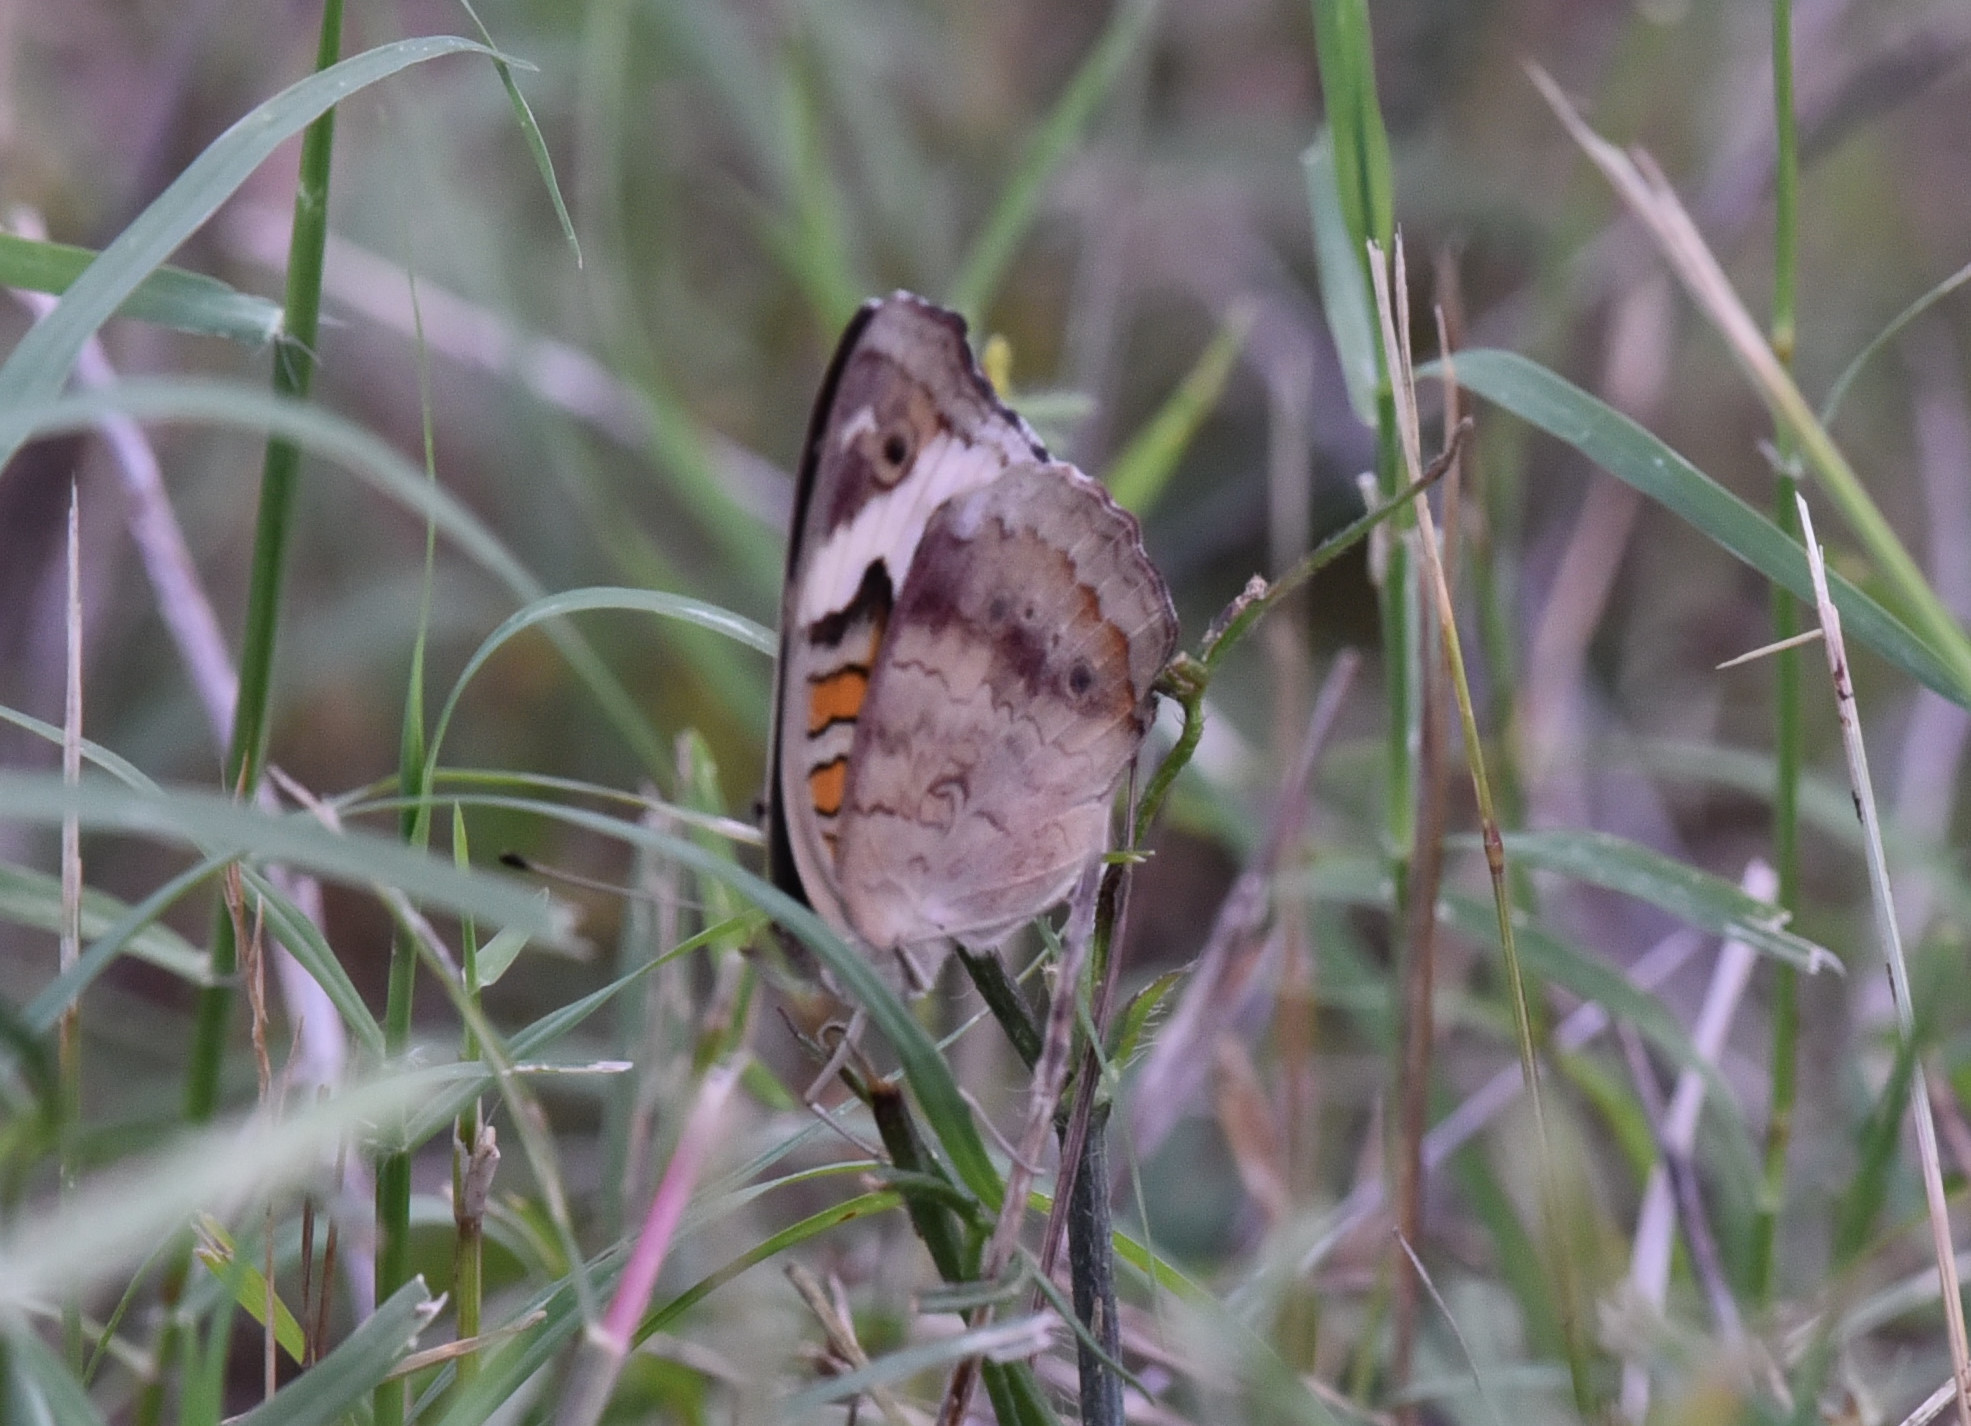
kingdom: Animalia
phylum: Arthropoda
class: Insecta
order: Lepidoptera
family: Nymphalidae
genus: Junonia
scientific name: Junonia coenia
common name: Common buckeye
